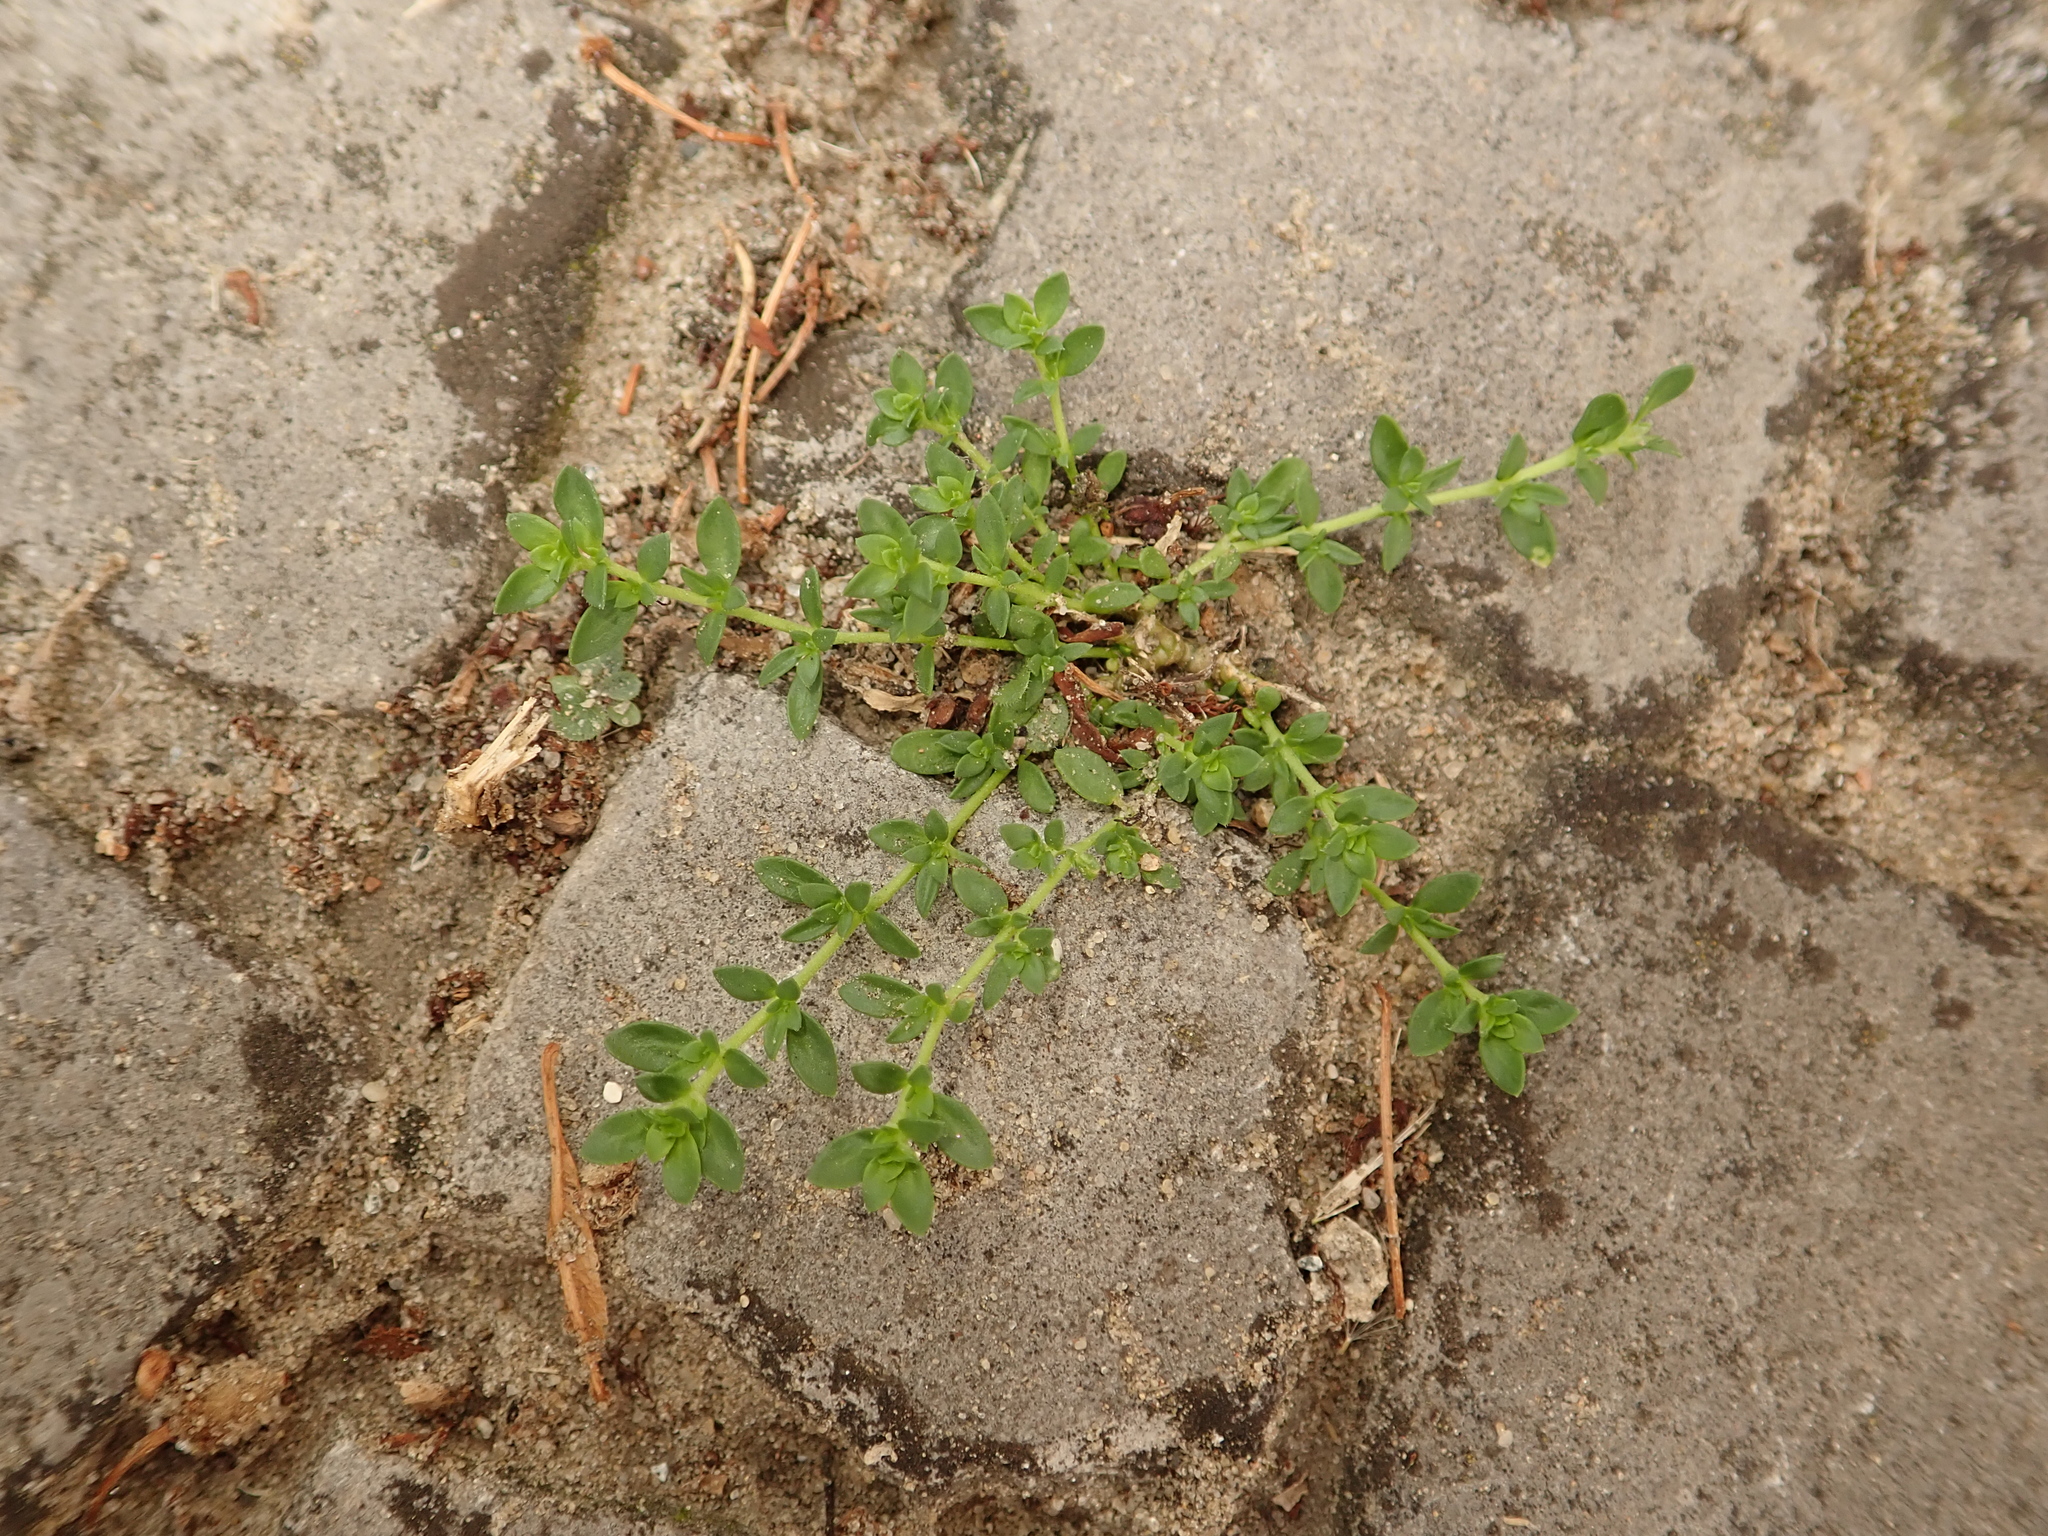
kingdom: Plantae
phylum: Tracheophyta
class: Magnoliopsida
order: Caryophyllales
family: Caryophyllaceae
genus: Herniaria
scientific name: Herniaria glabra
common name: Smooth rupturewort
